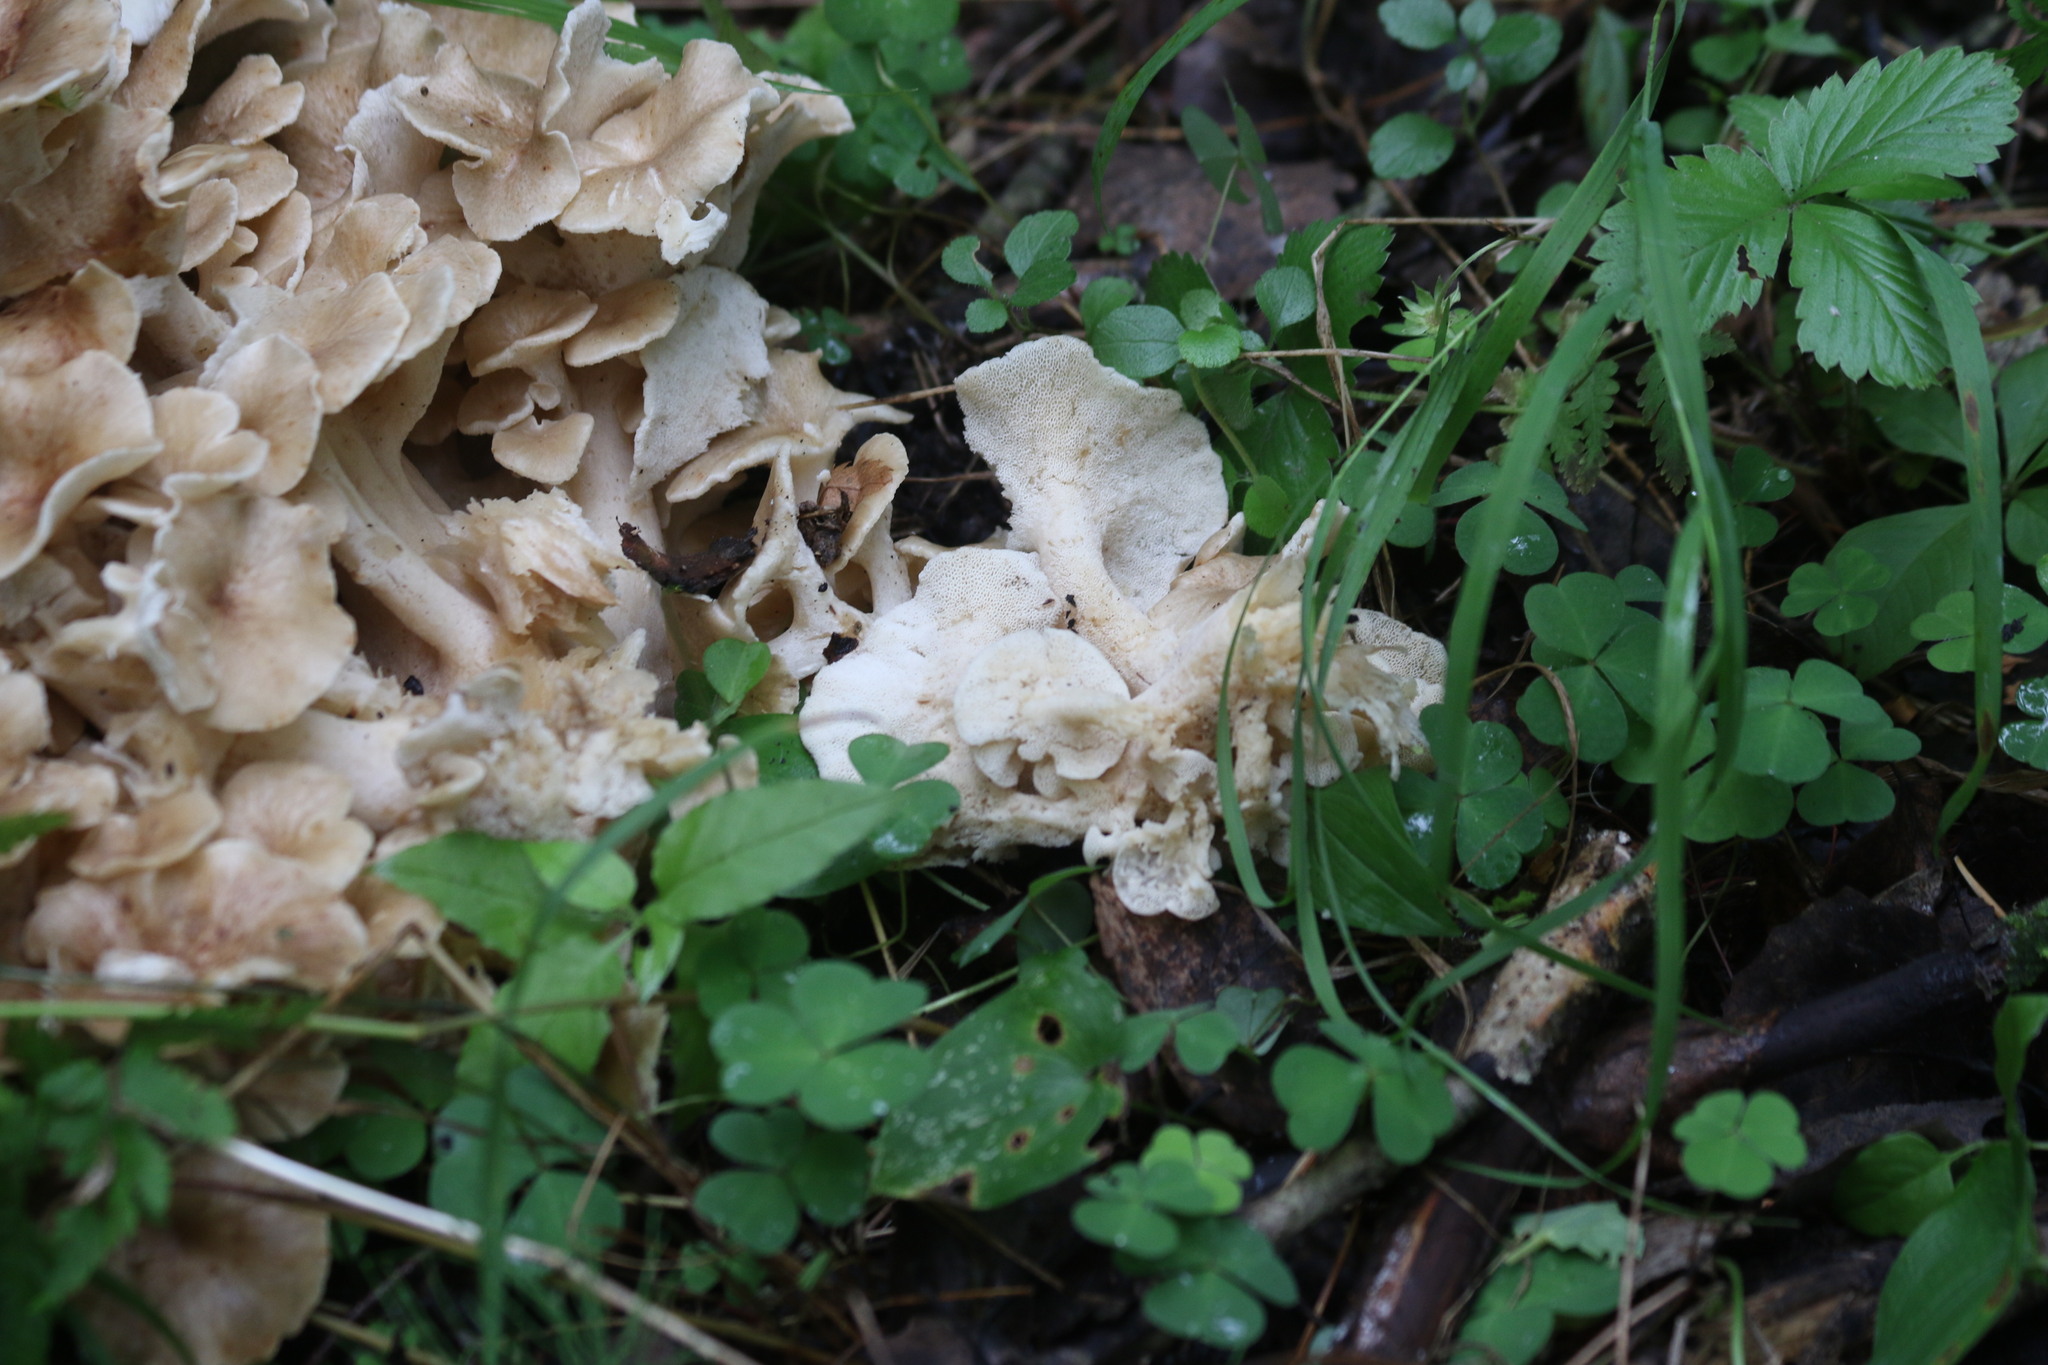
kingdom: Fungi
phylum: Basidiomycota
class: Agaricomycetes
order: Polyporales
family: Polyporaceae
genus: Polyporus
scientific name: Polyporus umbellatus
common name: Umbrella polypore
